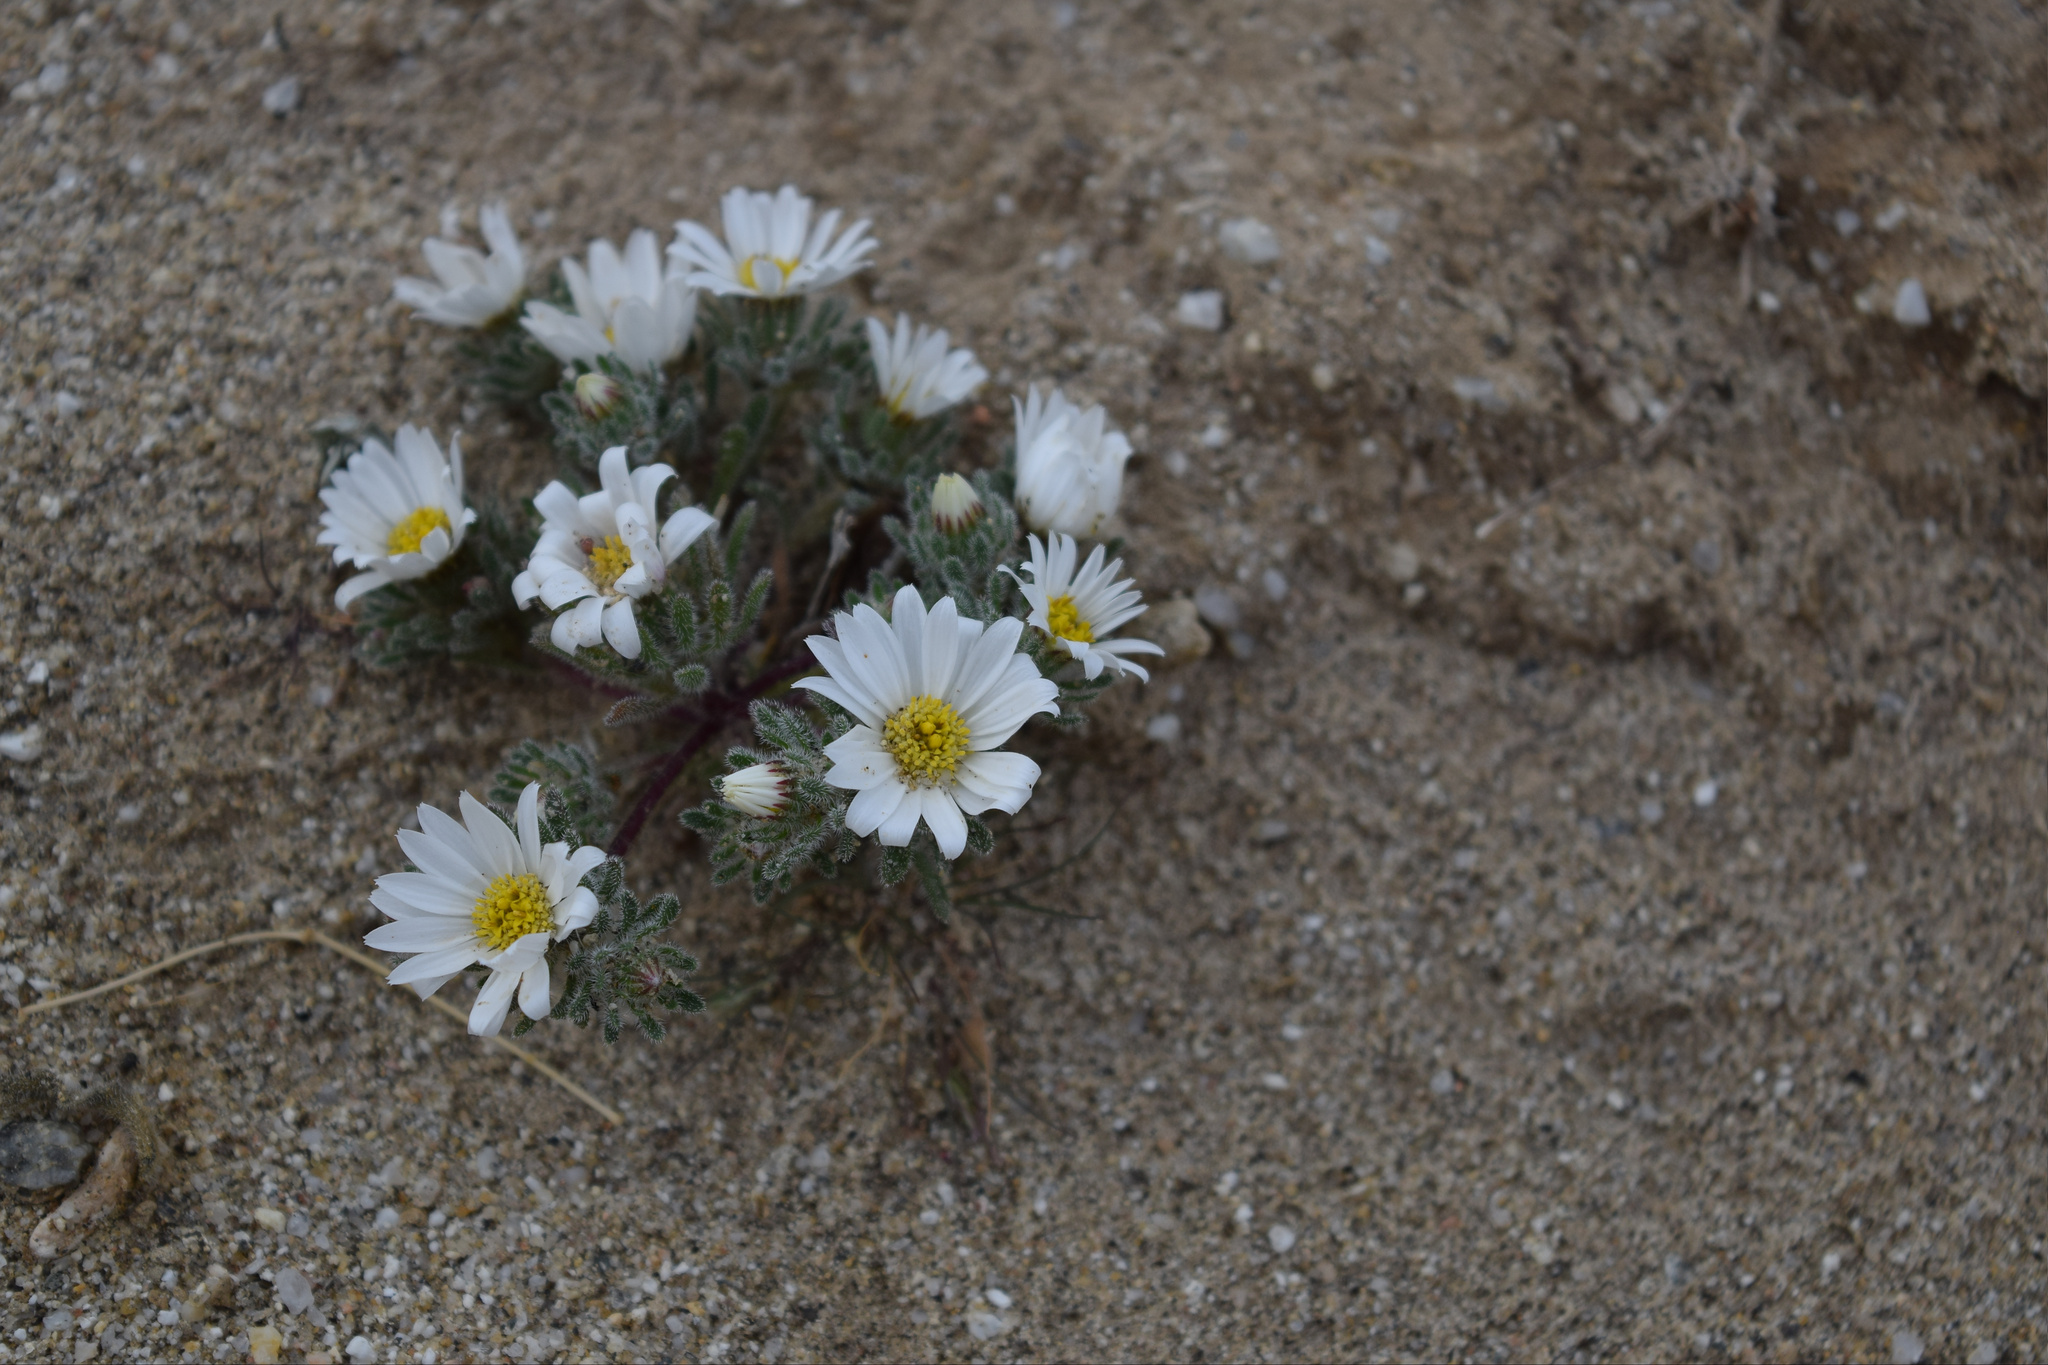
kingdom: Plantae
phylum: Tracheophyta
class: Magnoliopsida
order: Asterales
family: Asteraceae
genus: Monoptilon
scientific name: Monoptilon bellioides
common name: Bristly desertstar
